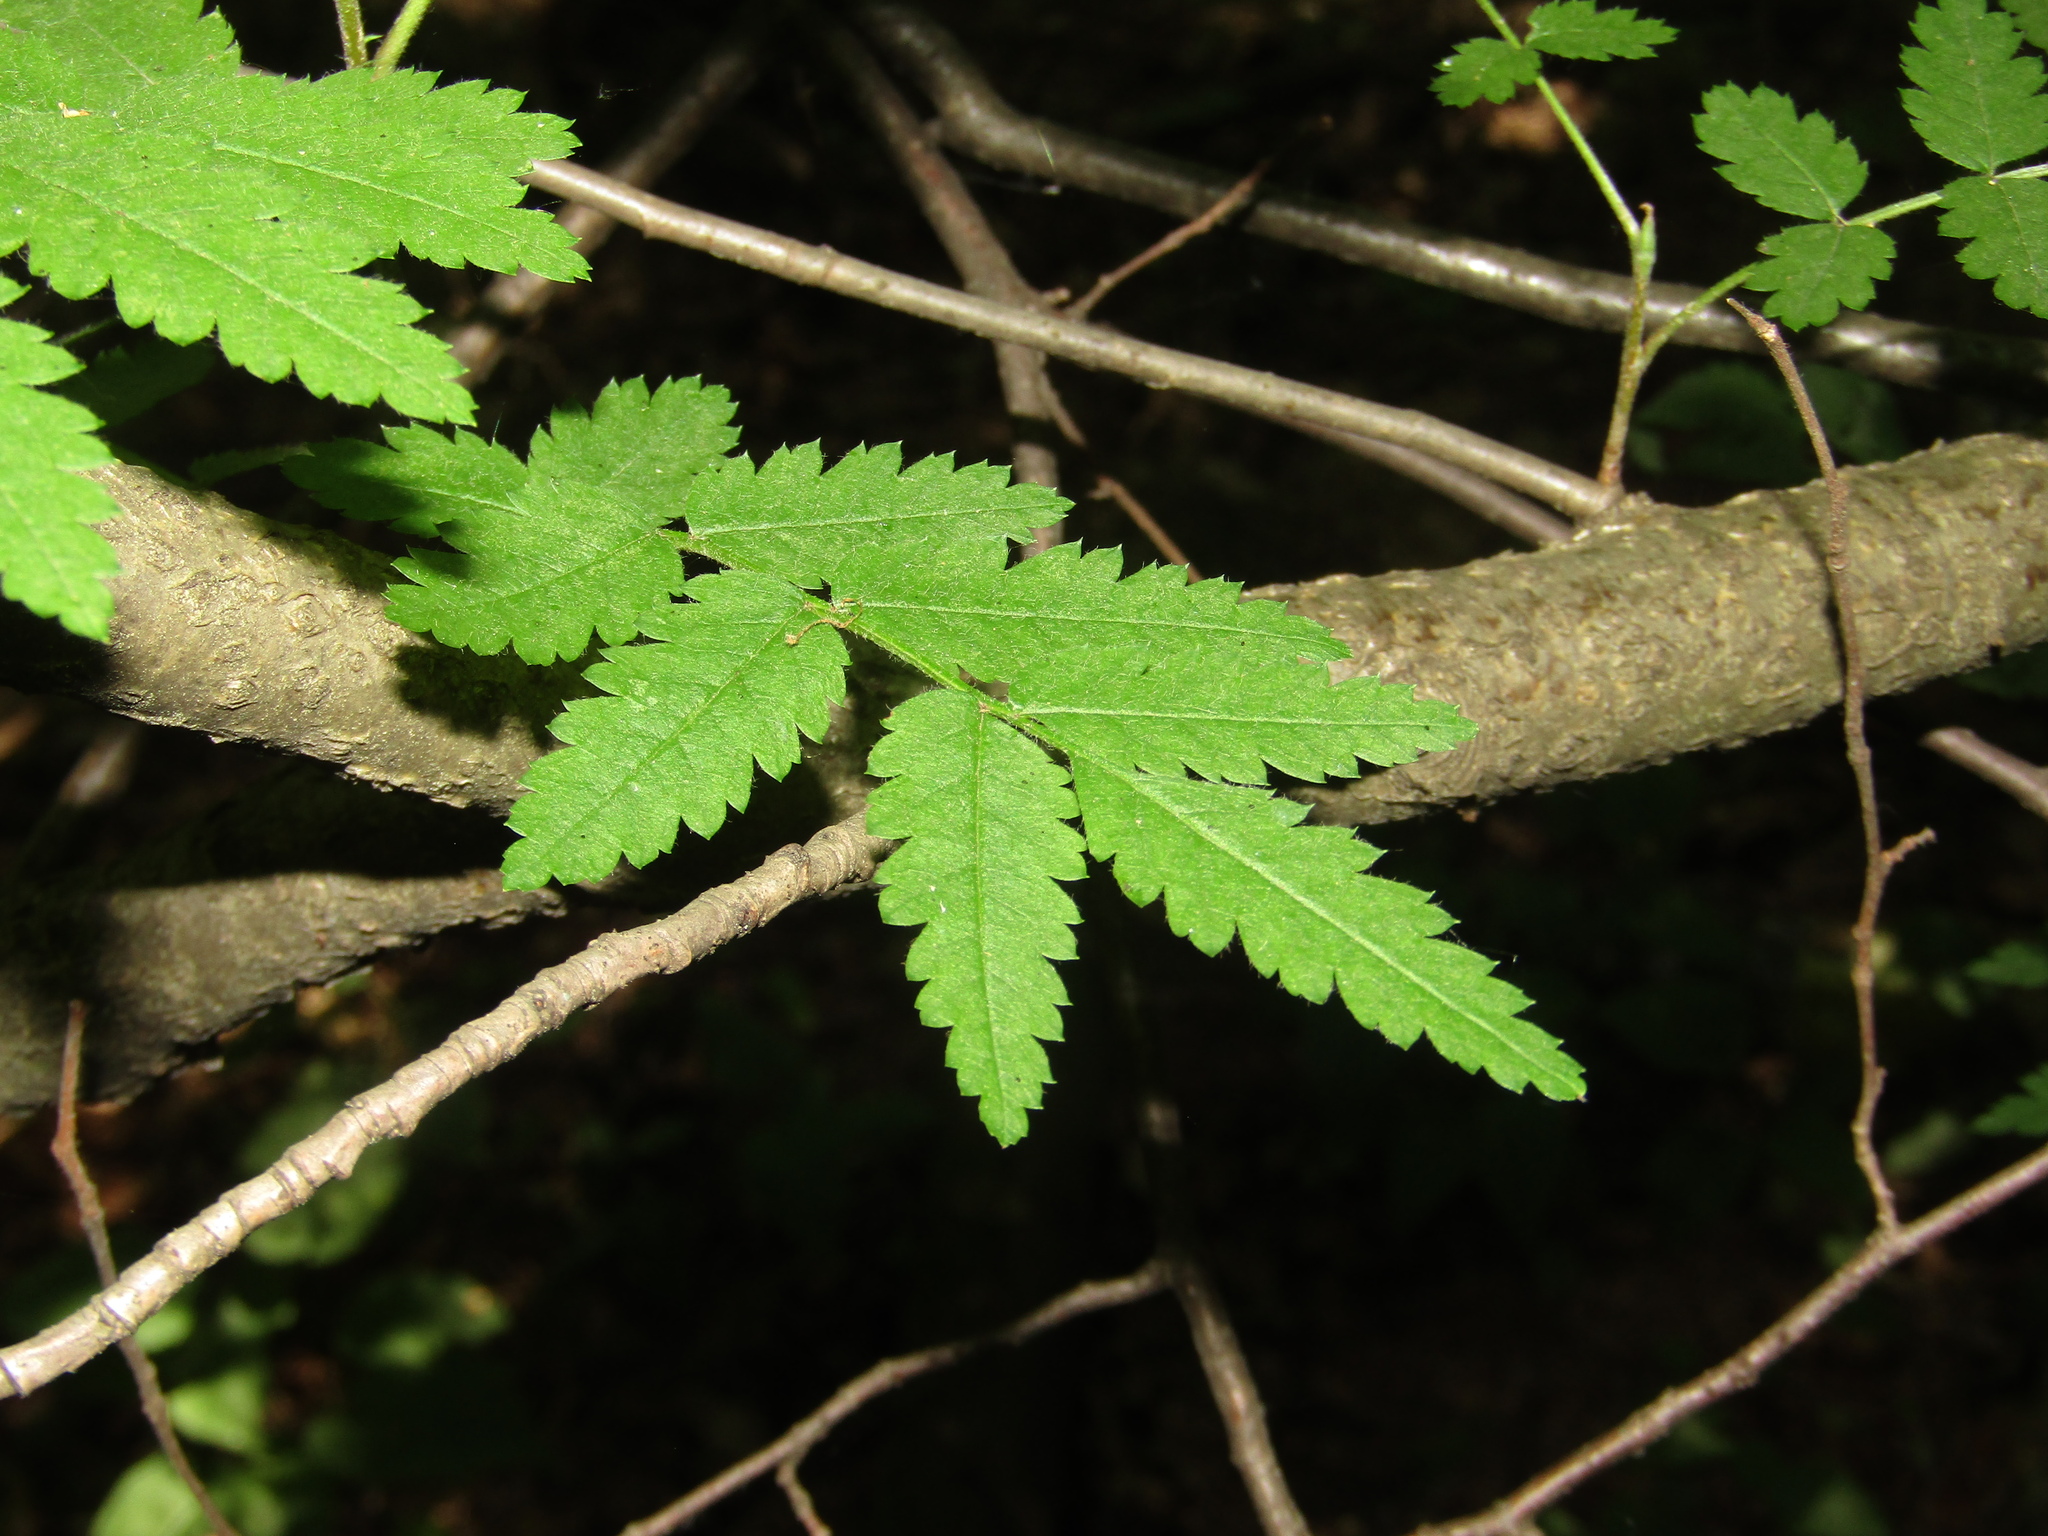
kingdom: Plantae
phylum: Tracheophyta
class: Magnoliopsida
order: Rosales
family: Rosaceae
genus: Sorbus
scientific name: Sorbus aucuparia
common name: Rowan
